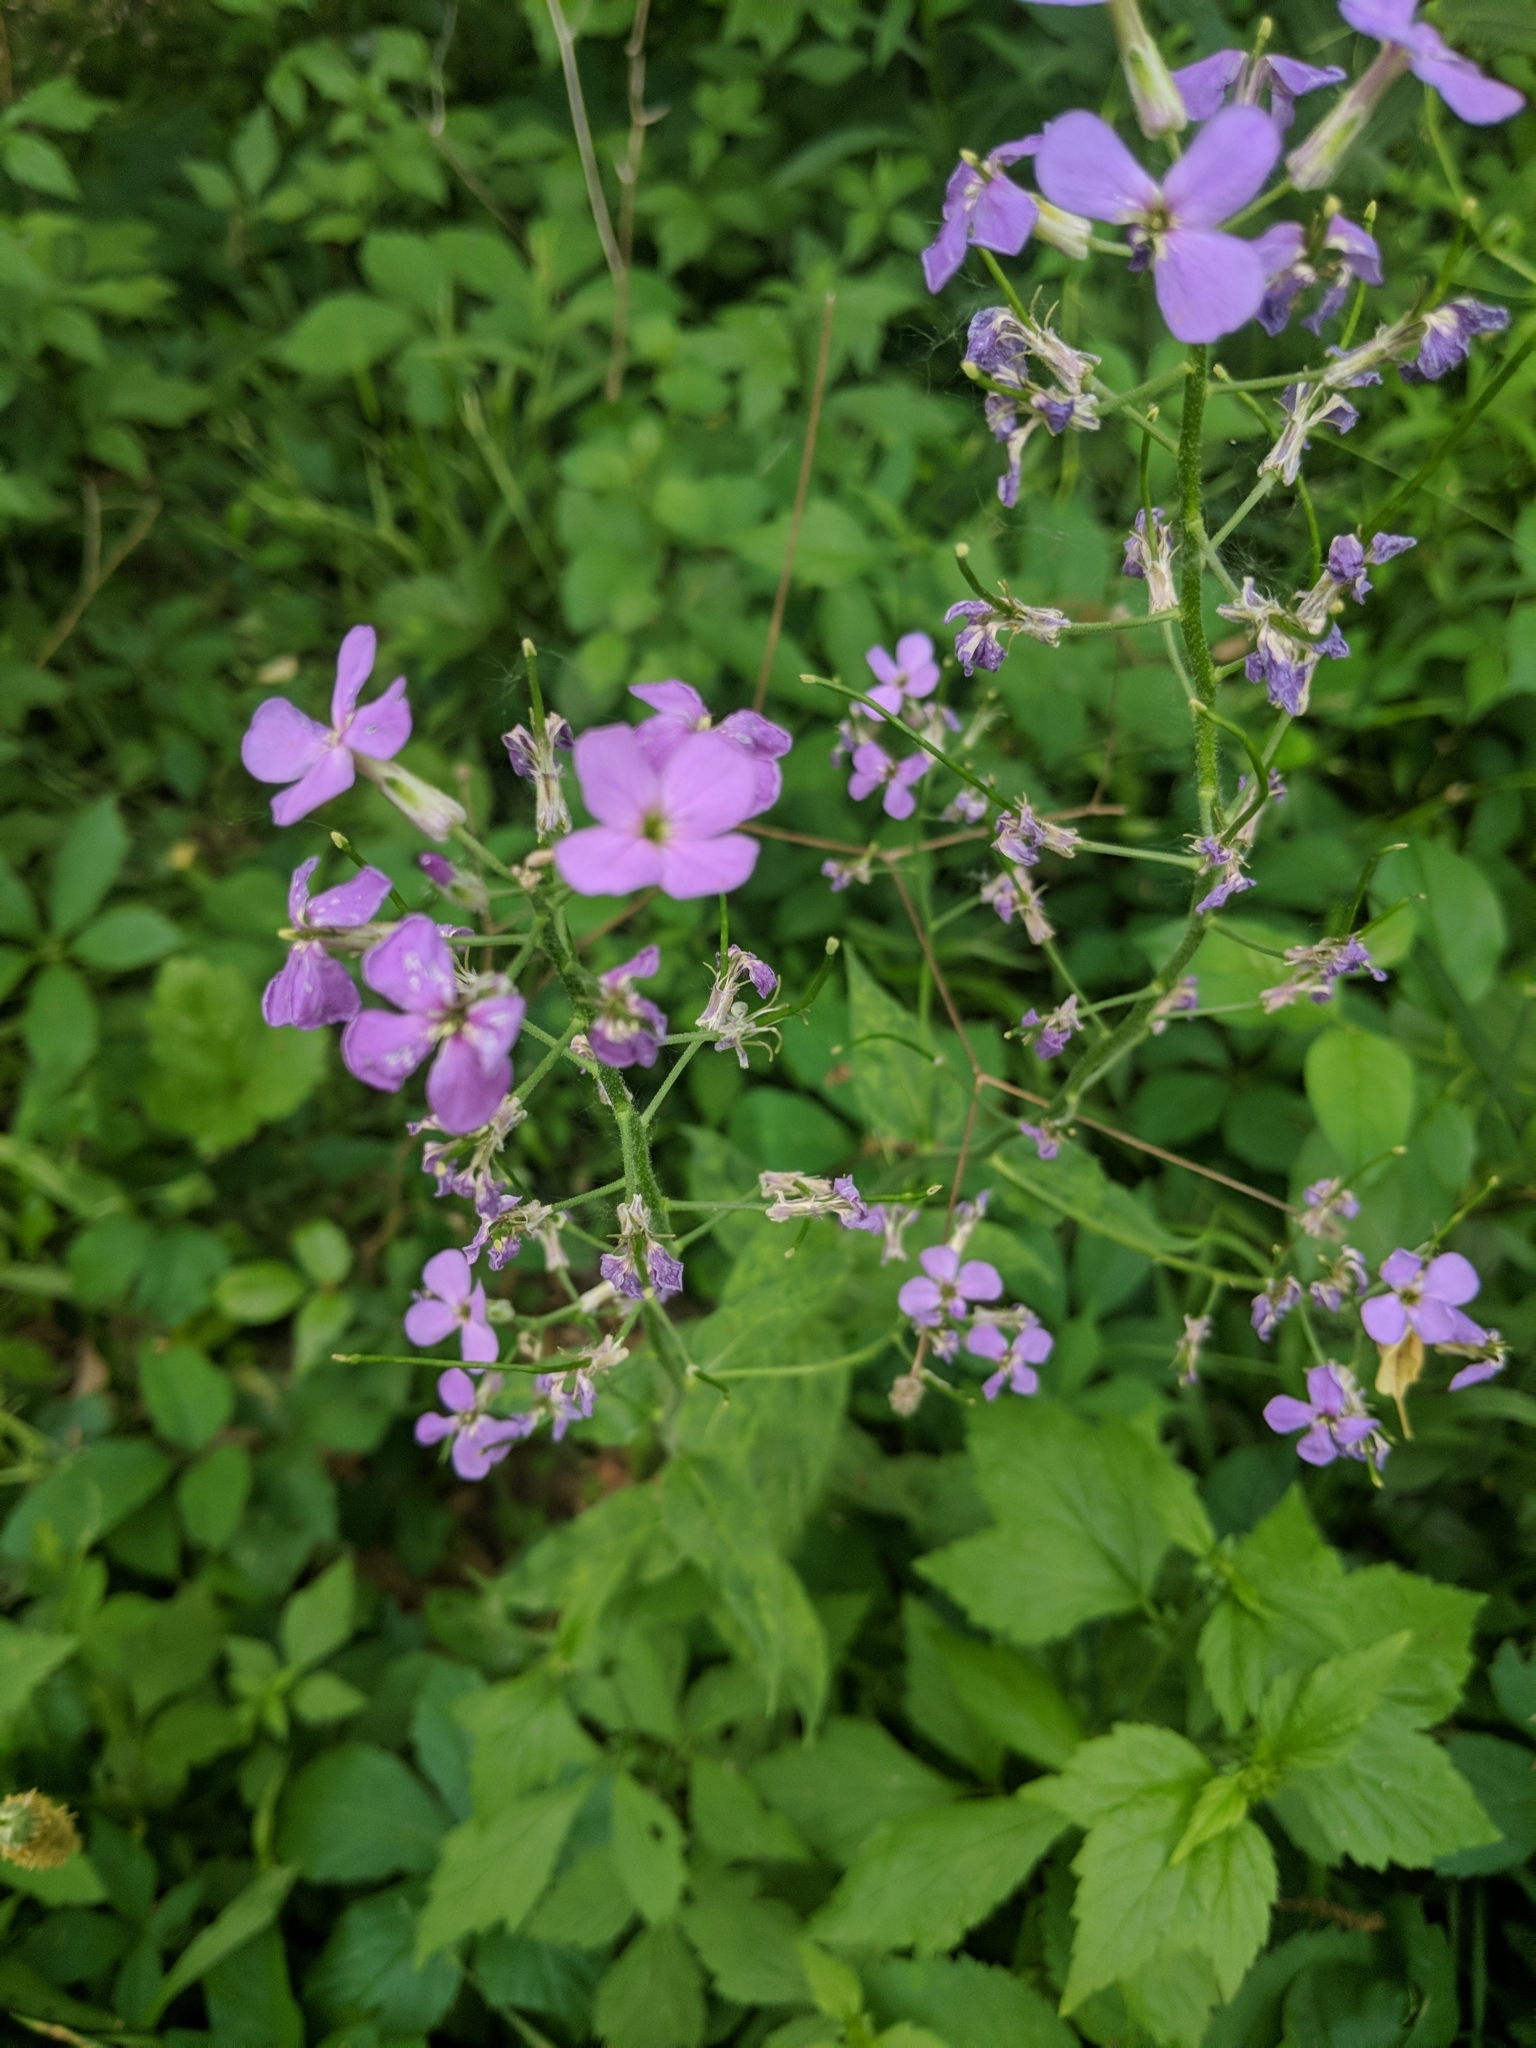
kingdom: Plantae
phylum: Tracheophyta
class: Magnoliopsida
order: Brassicales
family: Brassicaceae
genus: Hesperis
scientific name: Hesperis matronalis
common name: Dame's-violet
